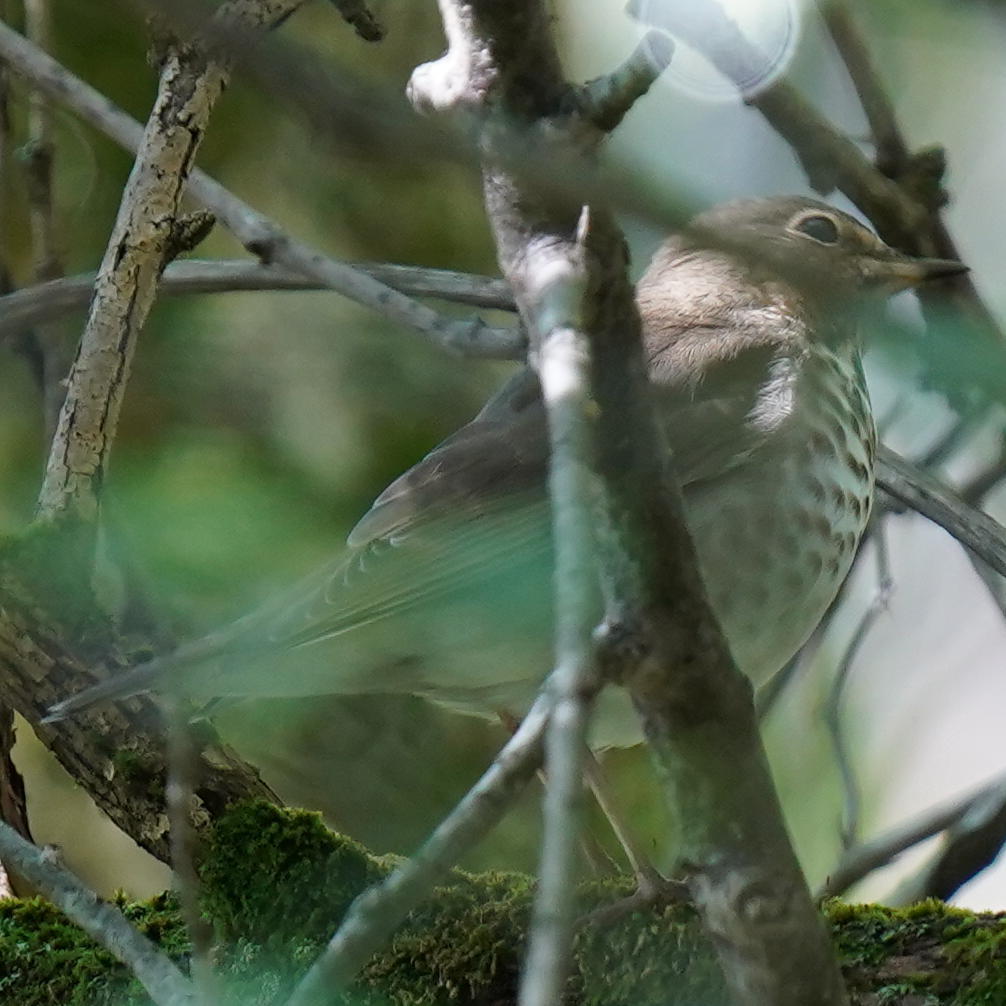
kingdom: Animalia
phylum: Chordata
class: Aves
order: Passeriformes
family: Turdidae
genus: Catharus
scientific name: Catharus ustulatus
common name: Swainson's thrush
